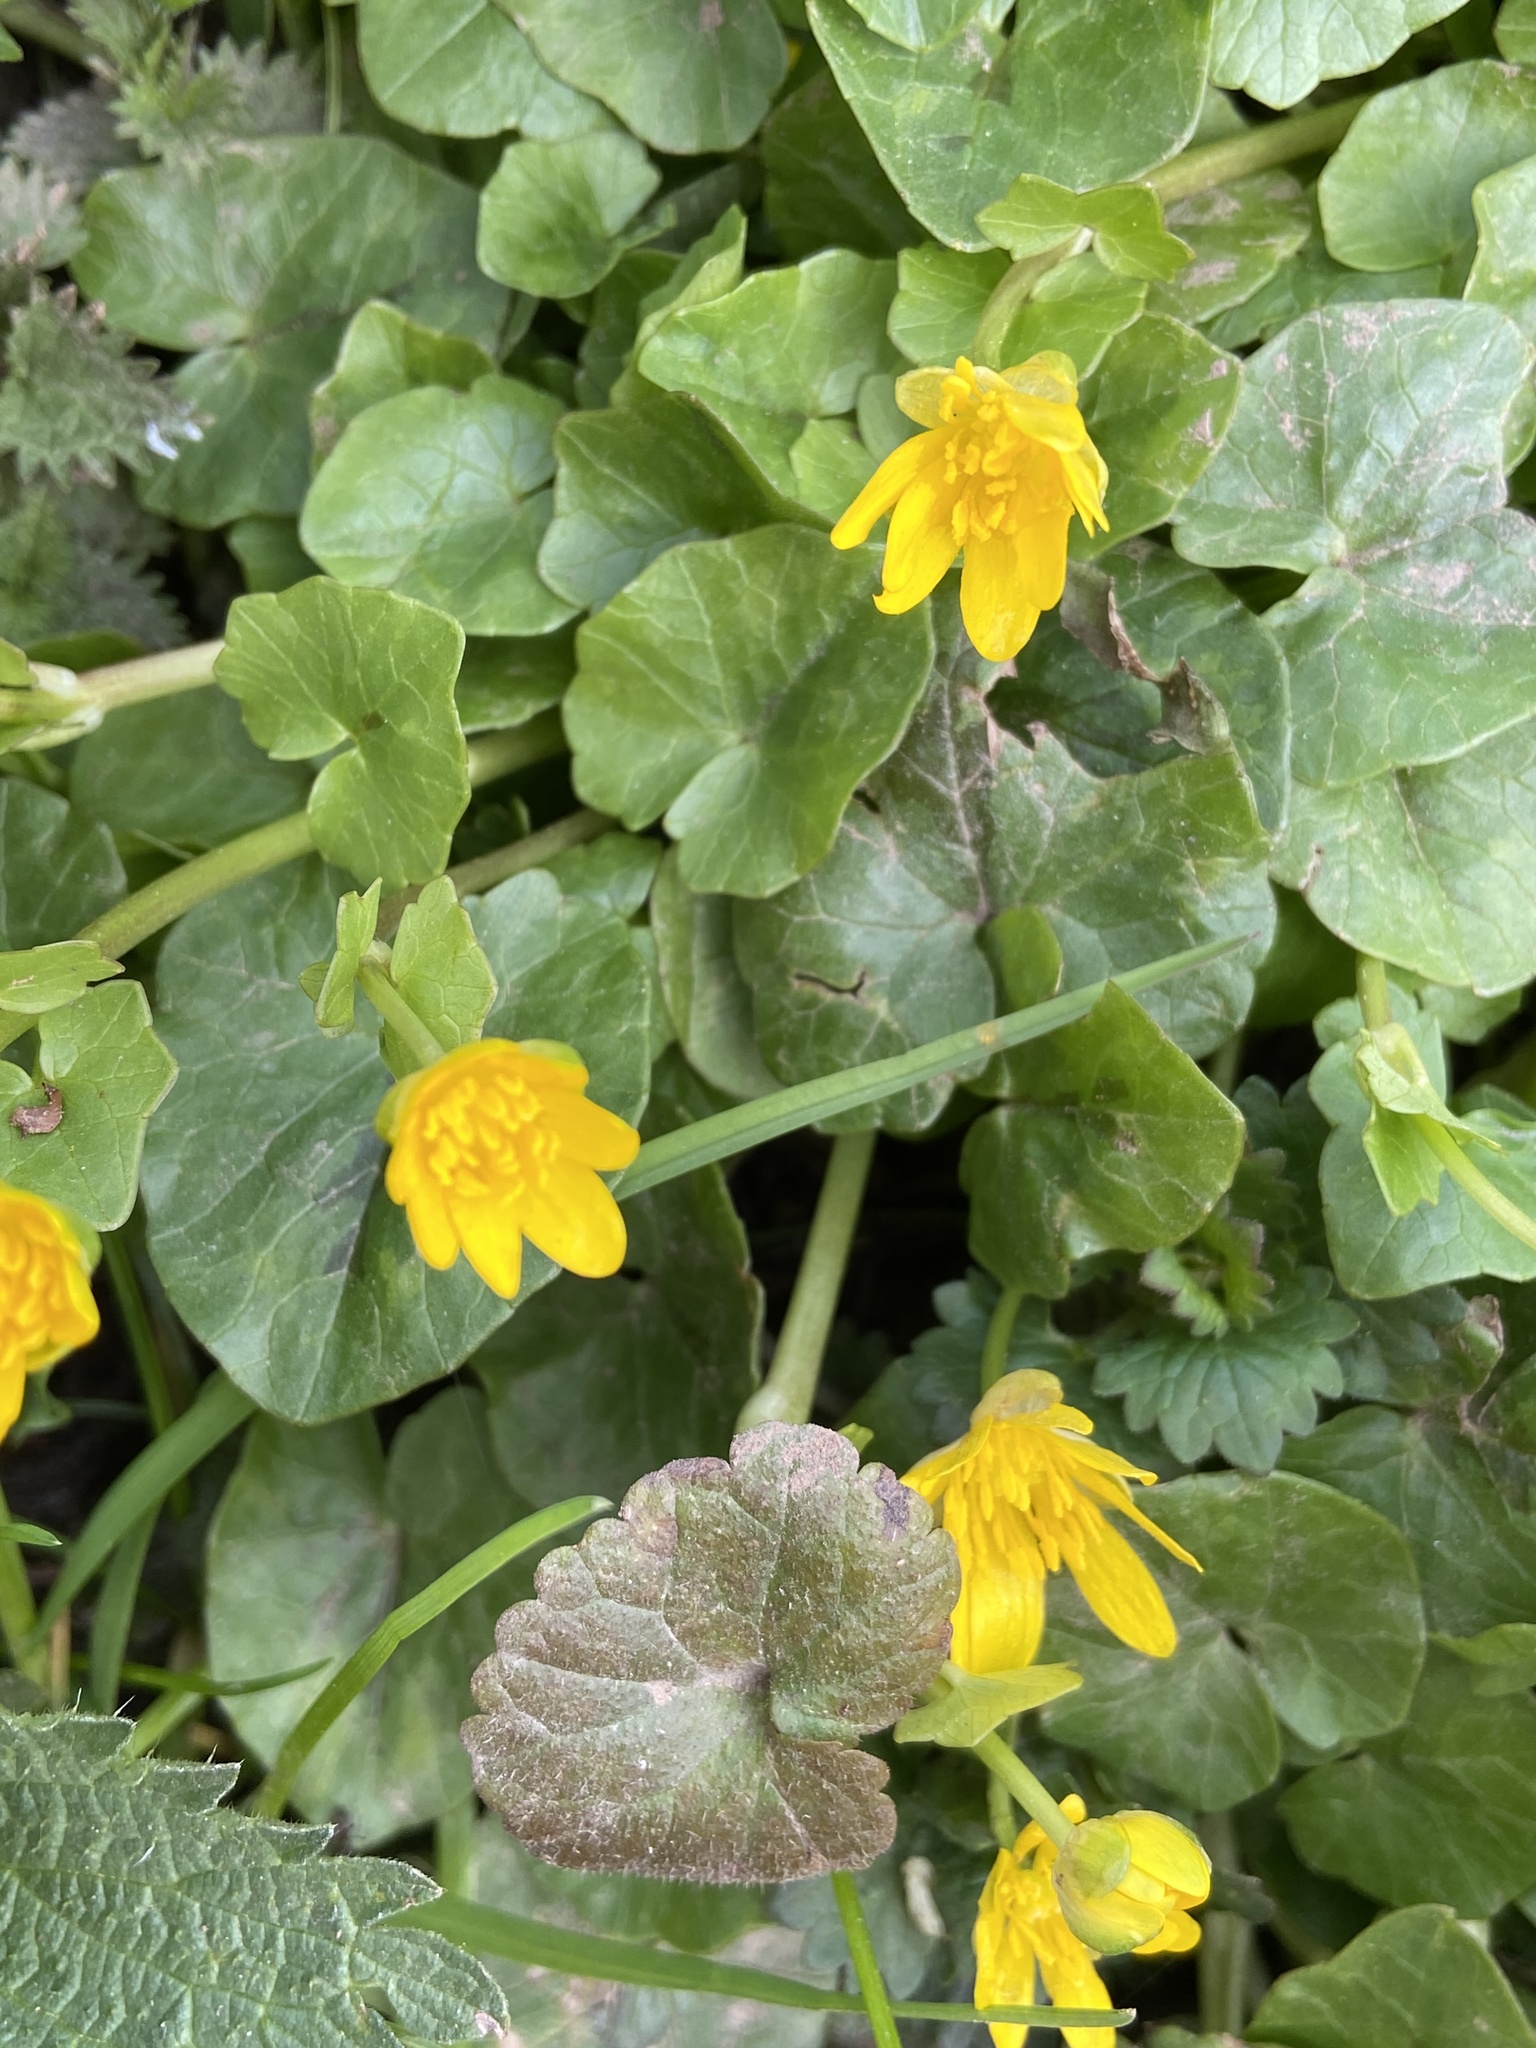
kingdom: Plantae
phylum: Tracheophyta
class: Magnoliopsida
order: Ranunculales
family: Ranunculaceae
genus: Ficaria
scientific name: Ficaria verna
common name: Lesser celandine
